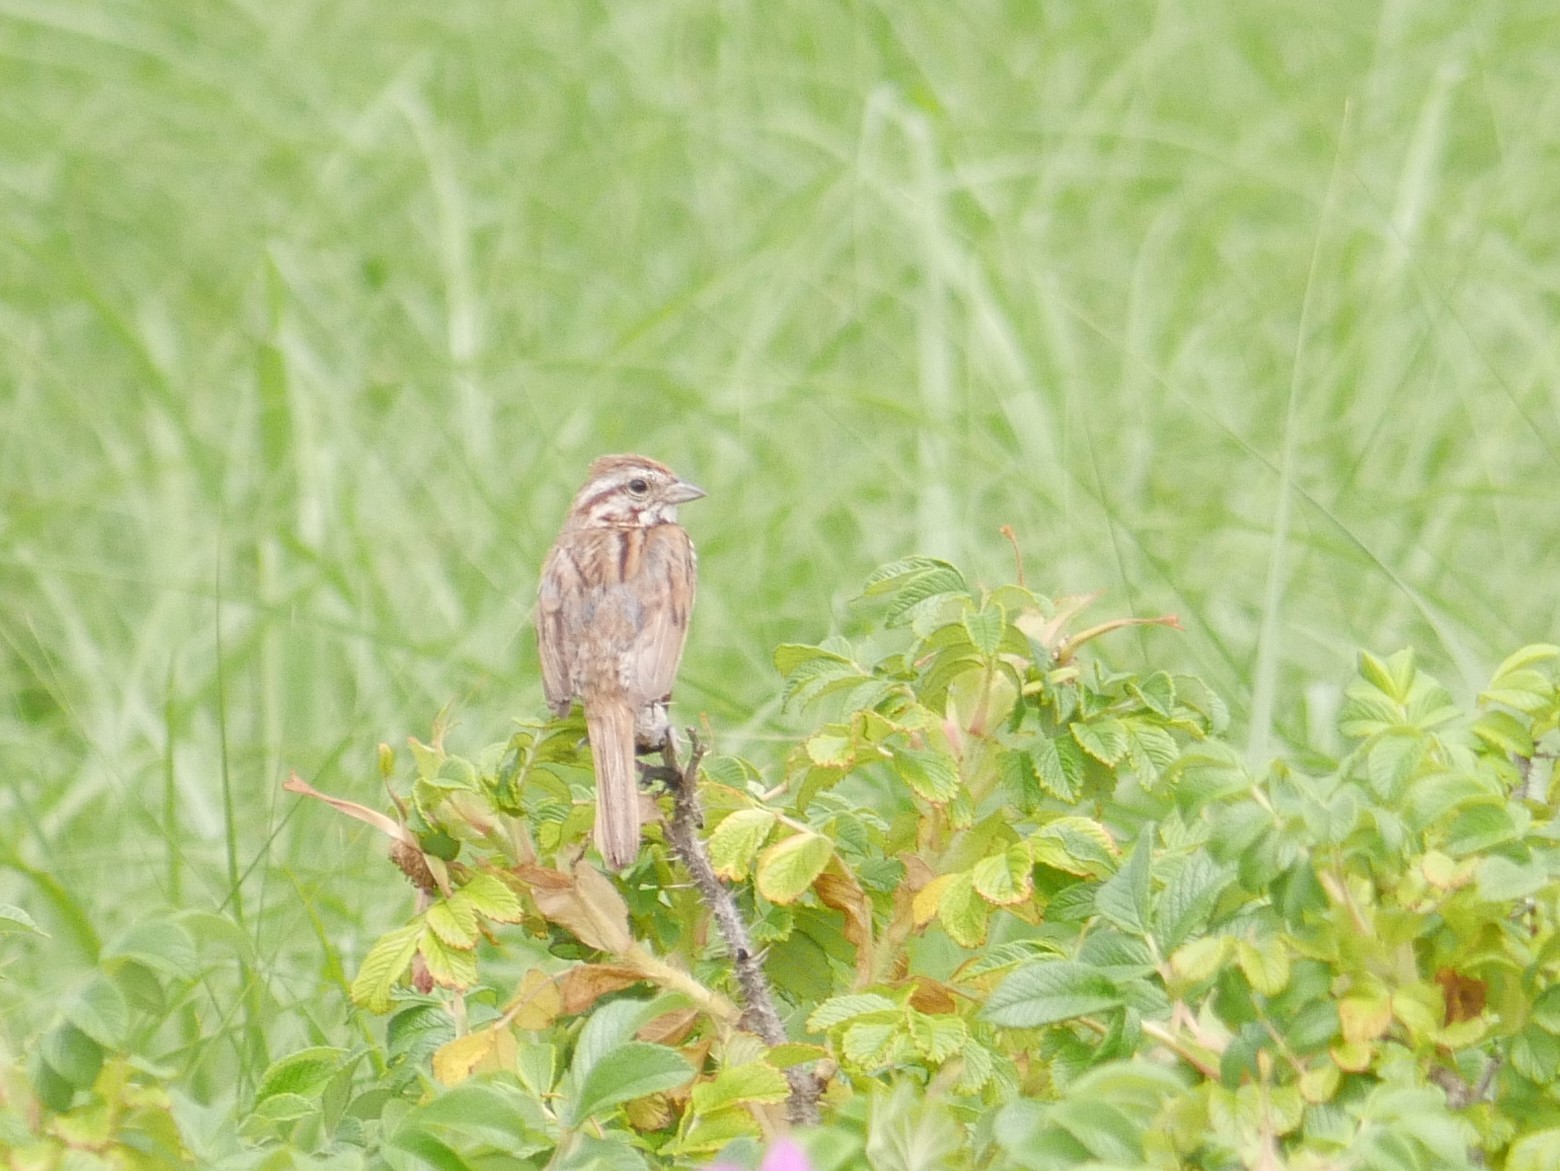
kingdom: Animalia
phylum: Chordata
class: Aves
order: Passeriformes
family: Passerellidae
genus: Melospiza
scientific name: Melospiza melodia
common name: Song sparrow
